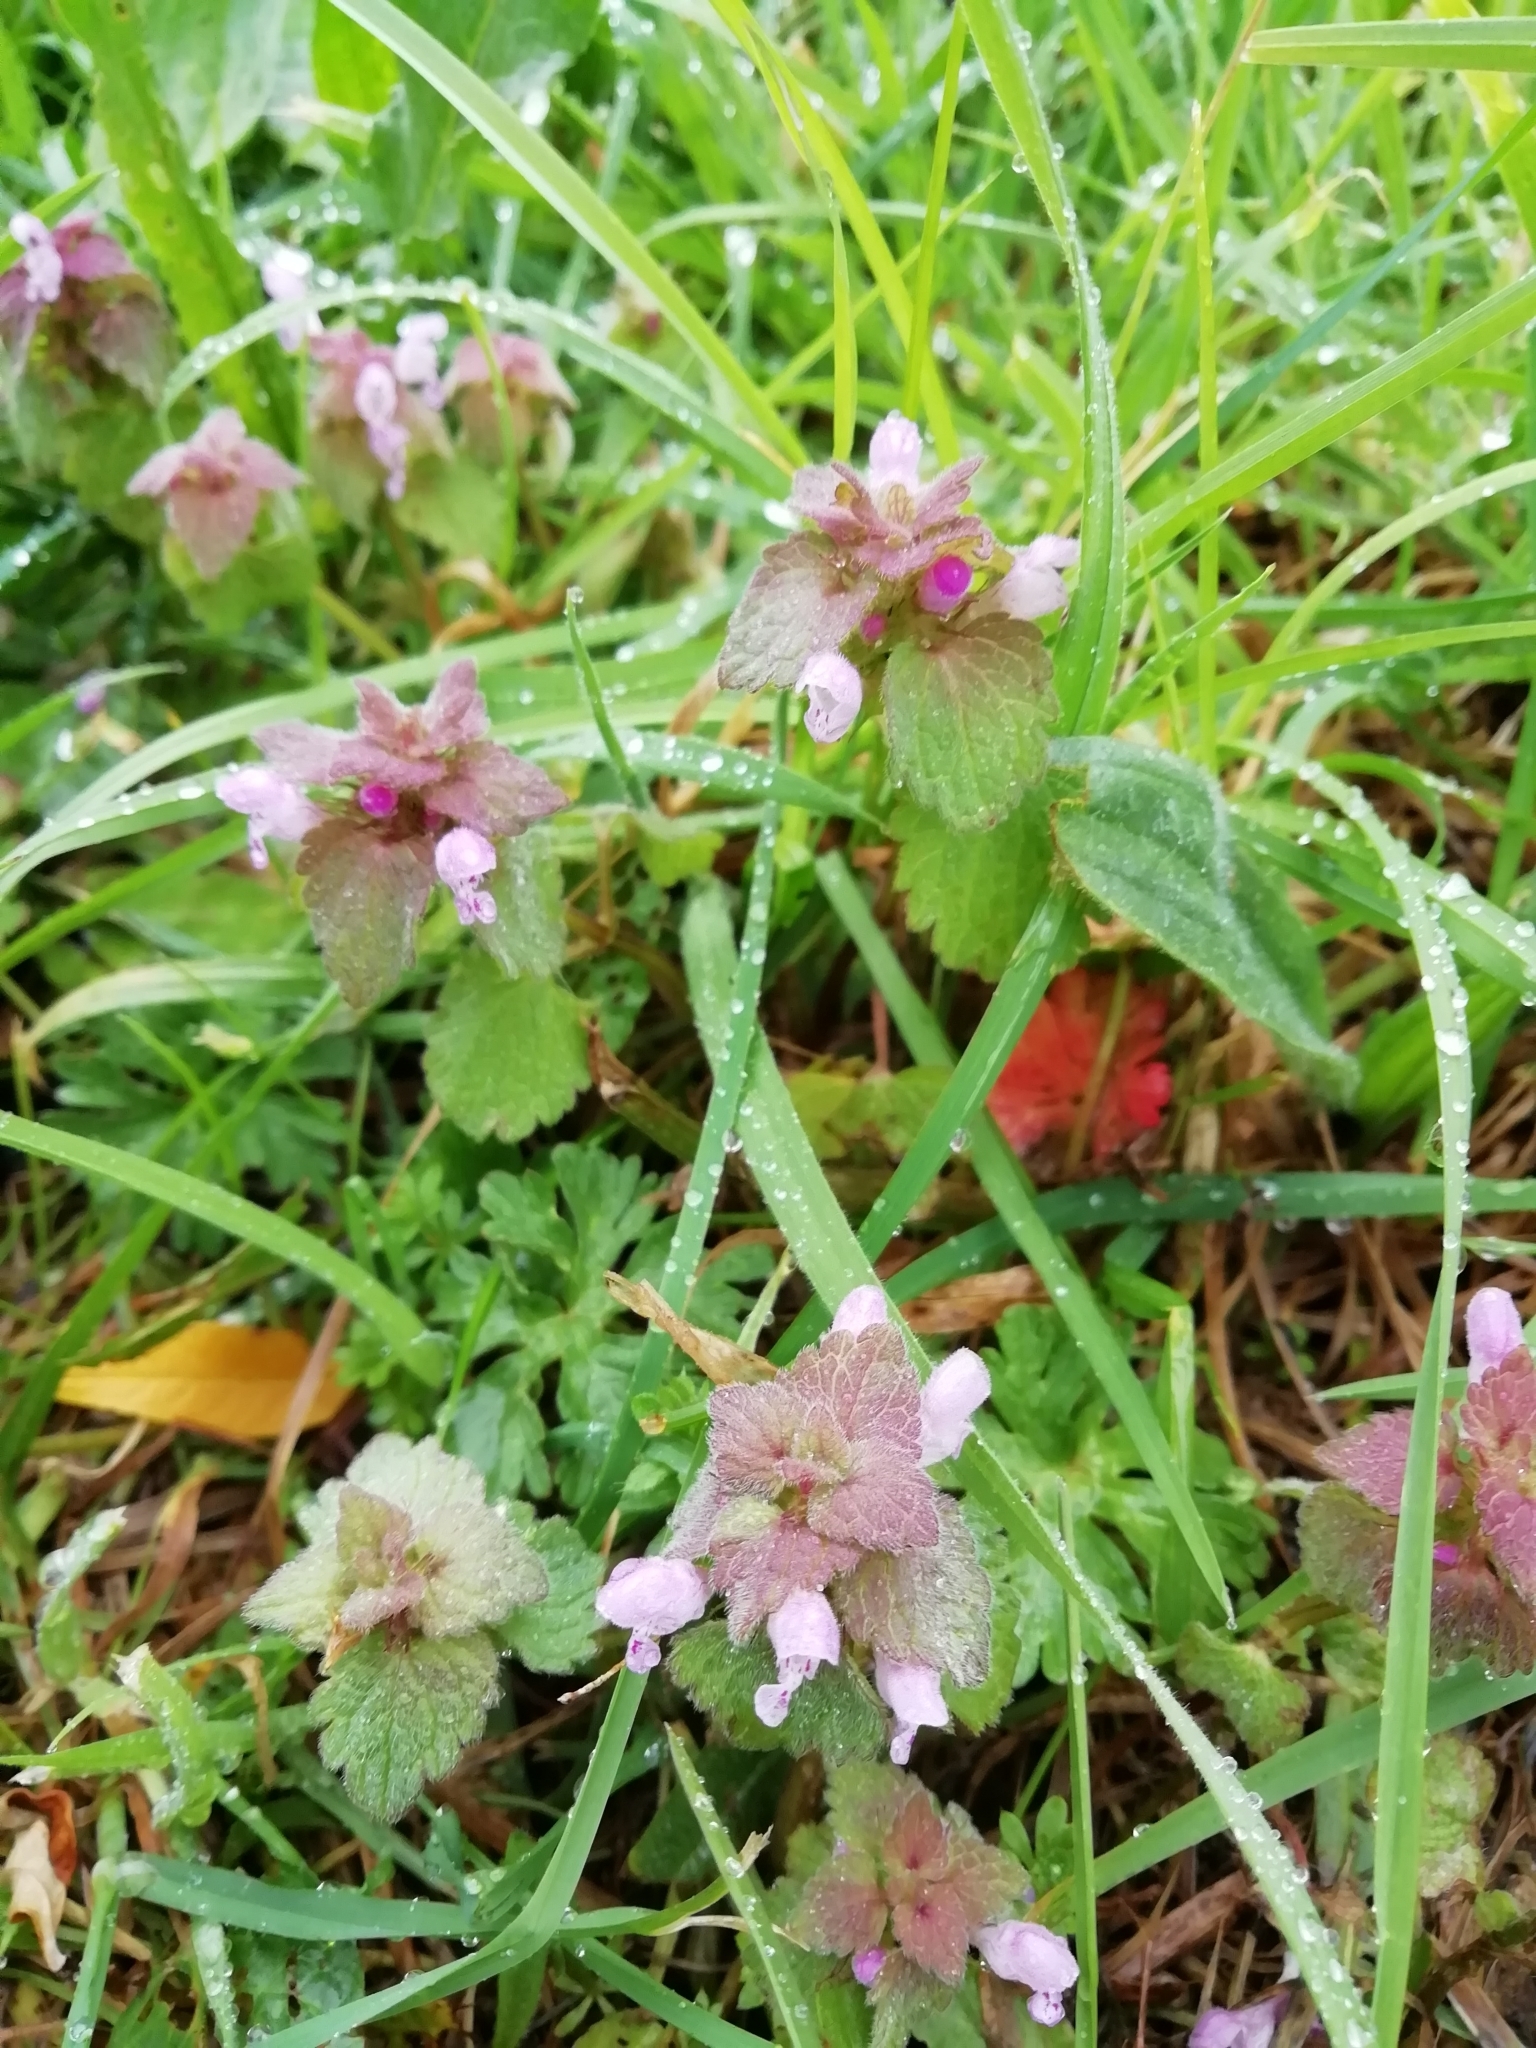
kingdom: Plantae
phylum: Tracheophyta
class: Magnoliopsida
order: Lamiales
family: Lamiaceae
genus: Lamium
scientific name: Lamium purpureum
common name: Red dead-nettle
